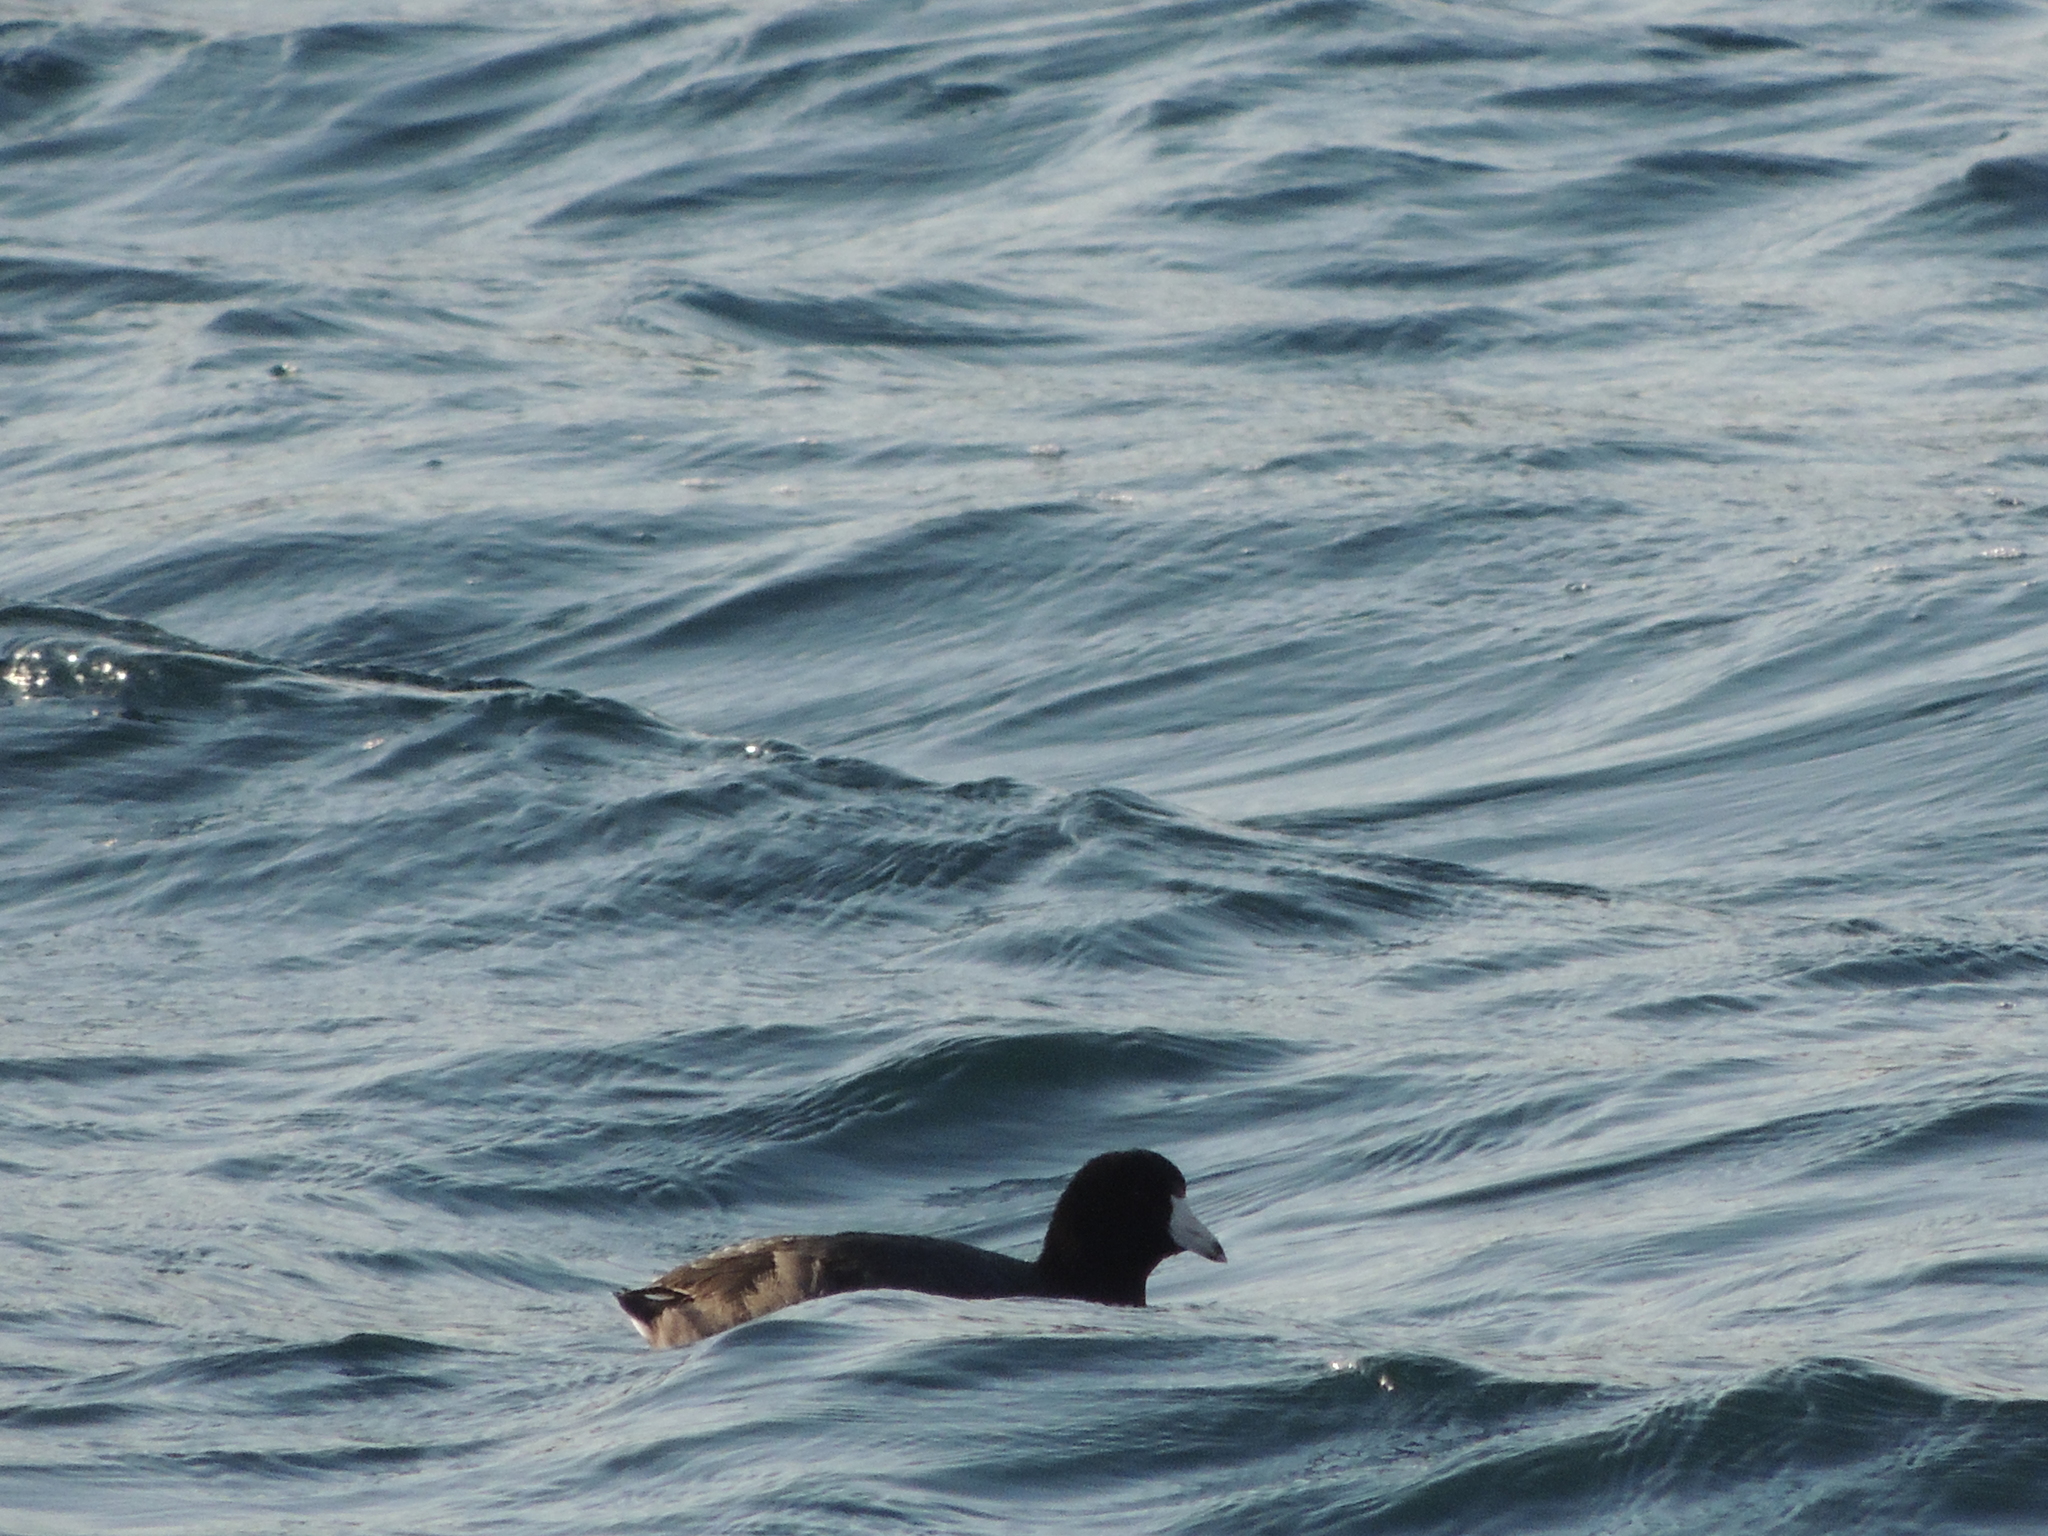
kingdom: Animalia
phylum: Chordata
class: Aves
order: Gruiformes
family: Rallidae
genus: Fulica
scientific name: Fulica americana
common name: American coot
